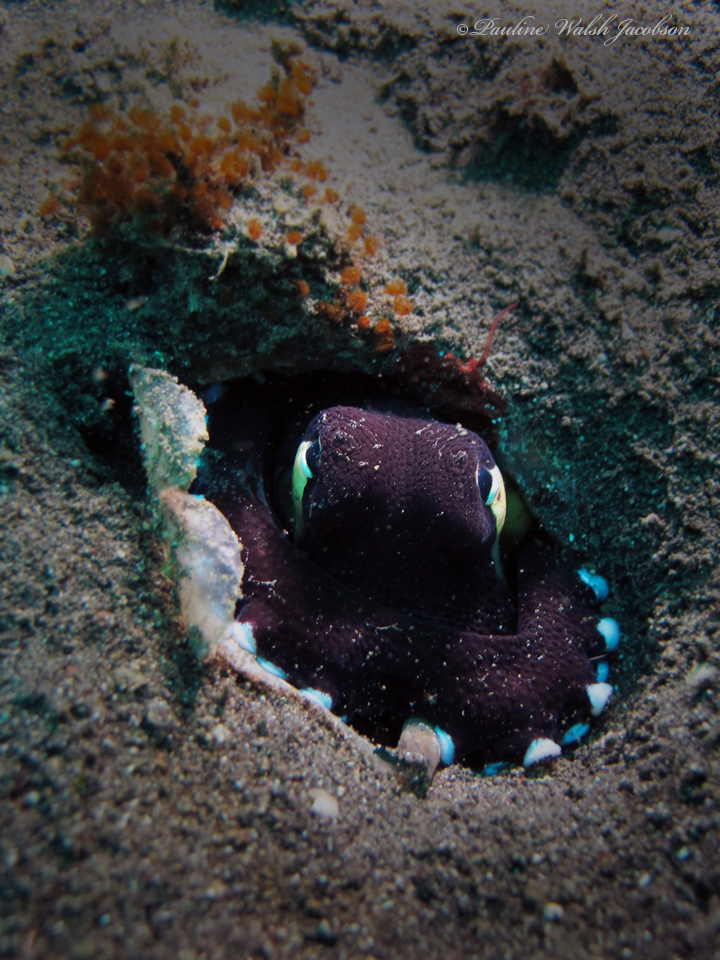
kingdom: Animalia
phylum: Mollusca
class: Cephalopoda
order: Octopoda
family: Octopodidae
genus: Amphioctopus
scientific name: Amphioctopus marginatus
